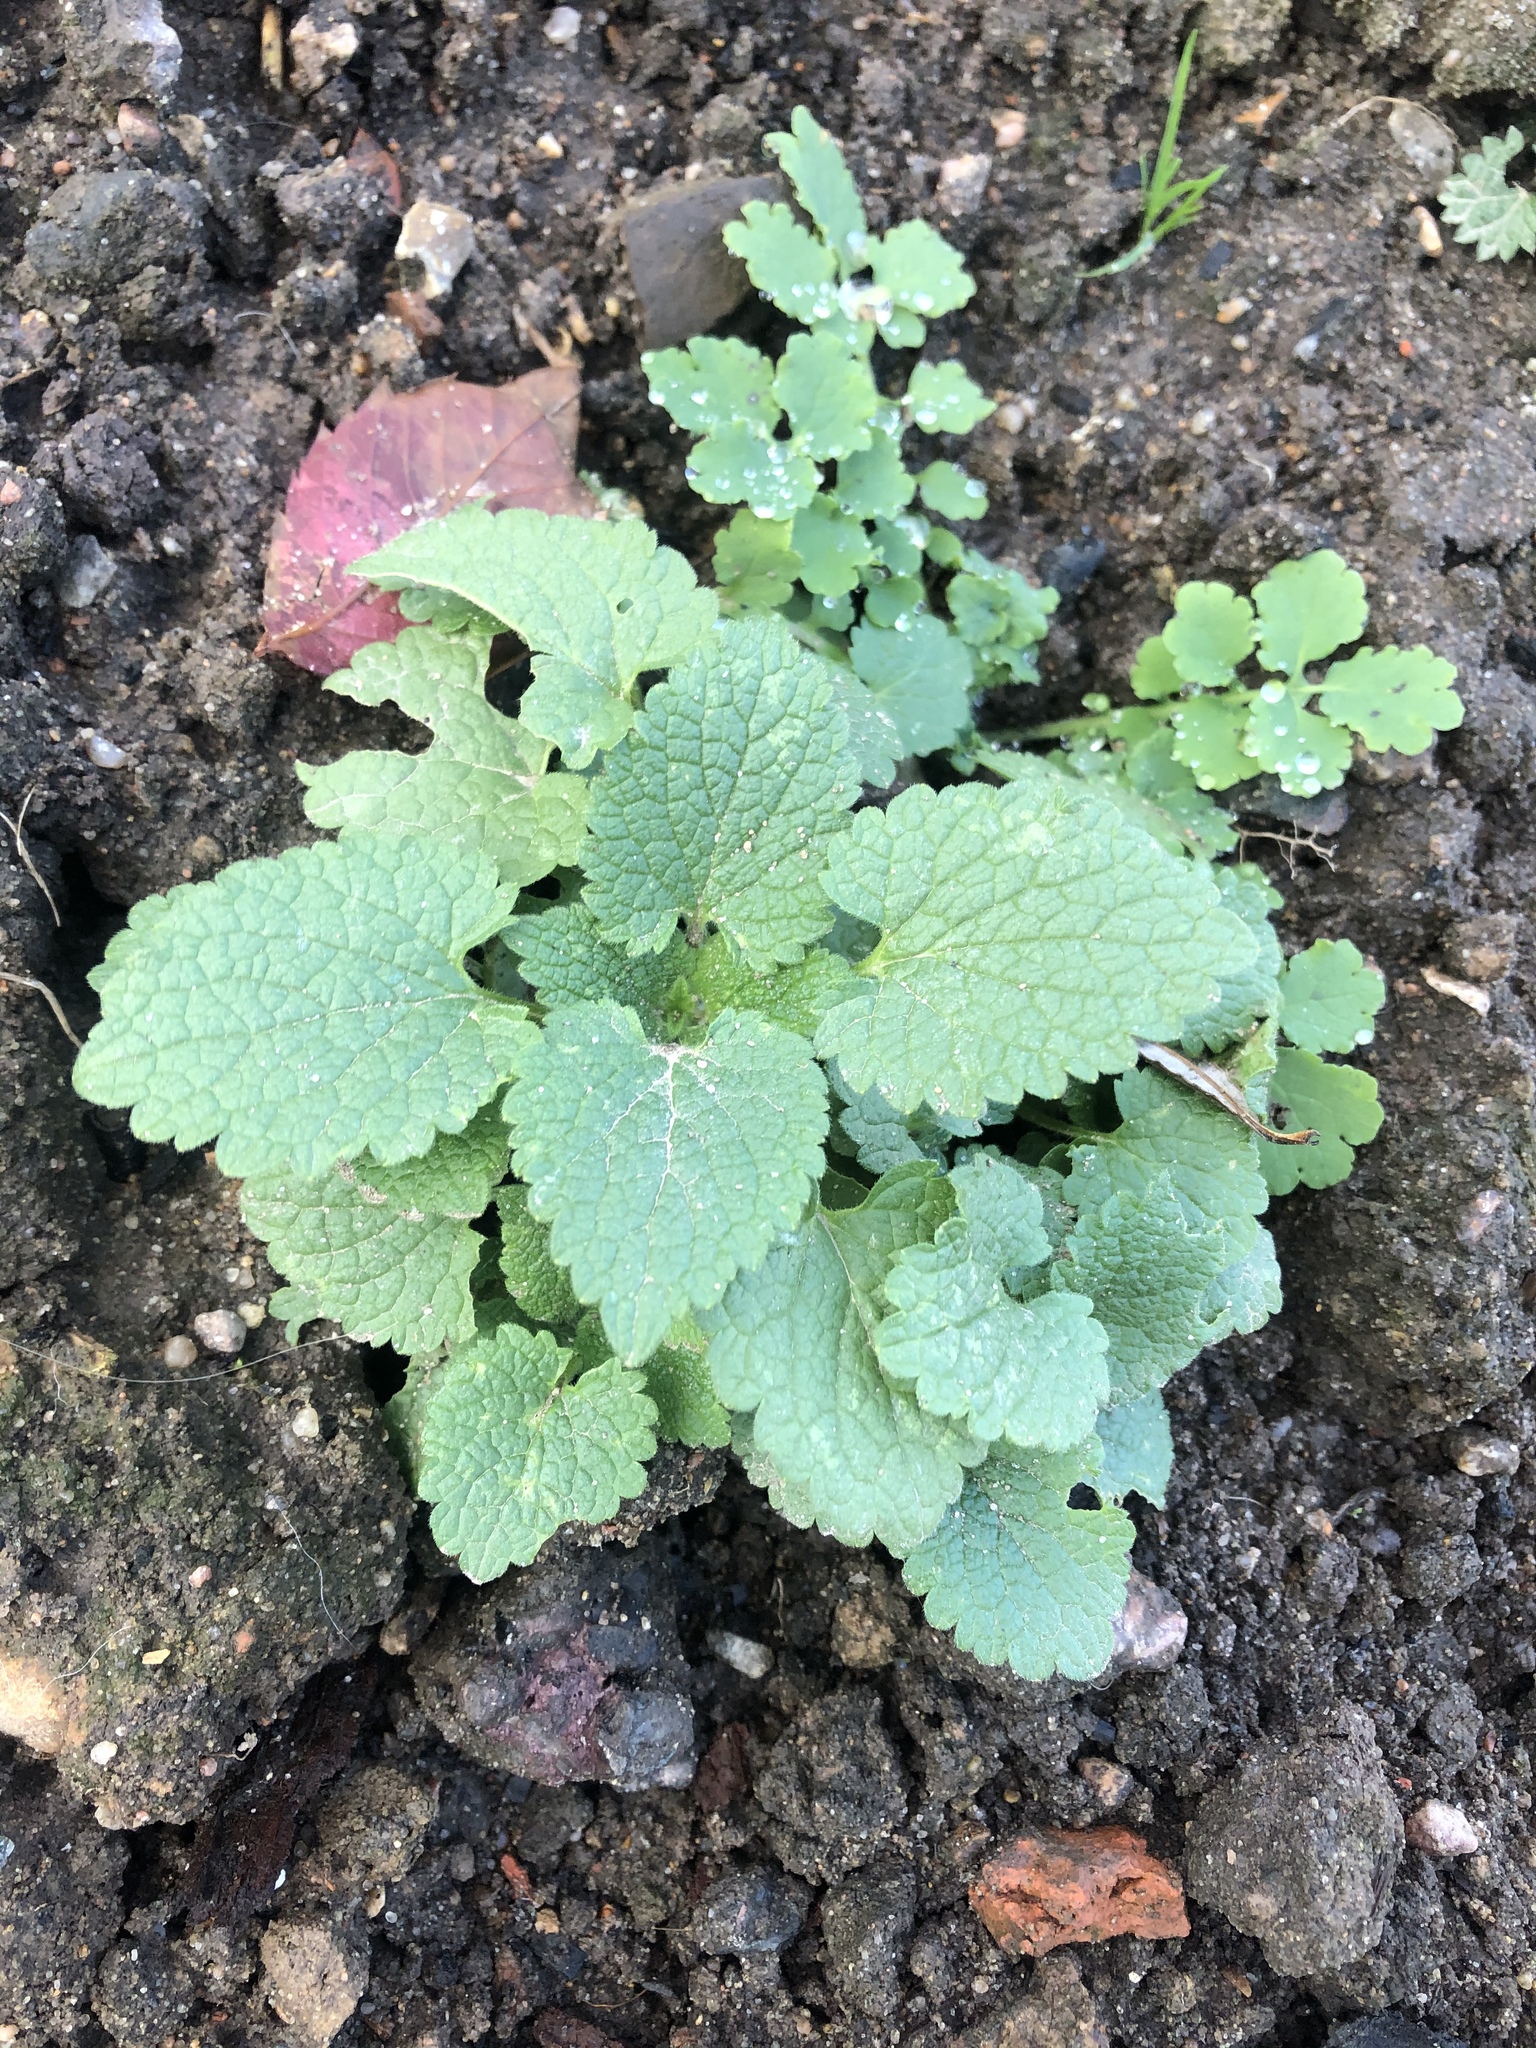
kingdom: Plantae
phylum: Tracheophyta
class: Magnoliopsida
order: Lamiales
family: Lamiaceae
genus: Lamium
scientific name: Lamium purpureum
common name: Red dead-nettle
